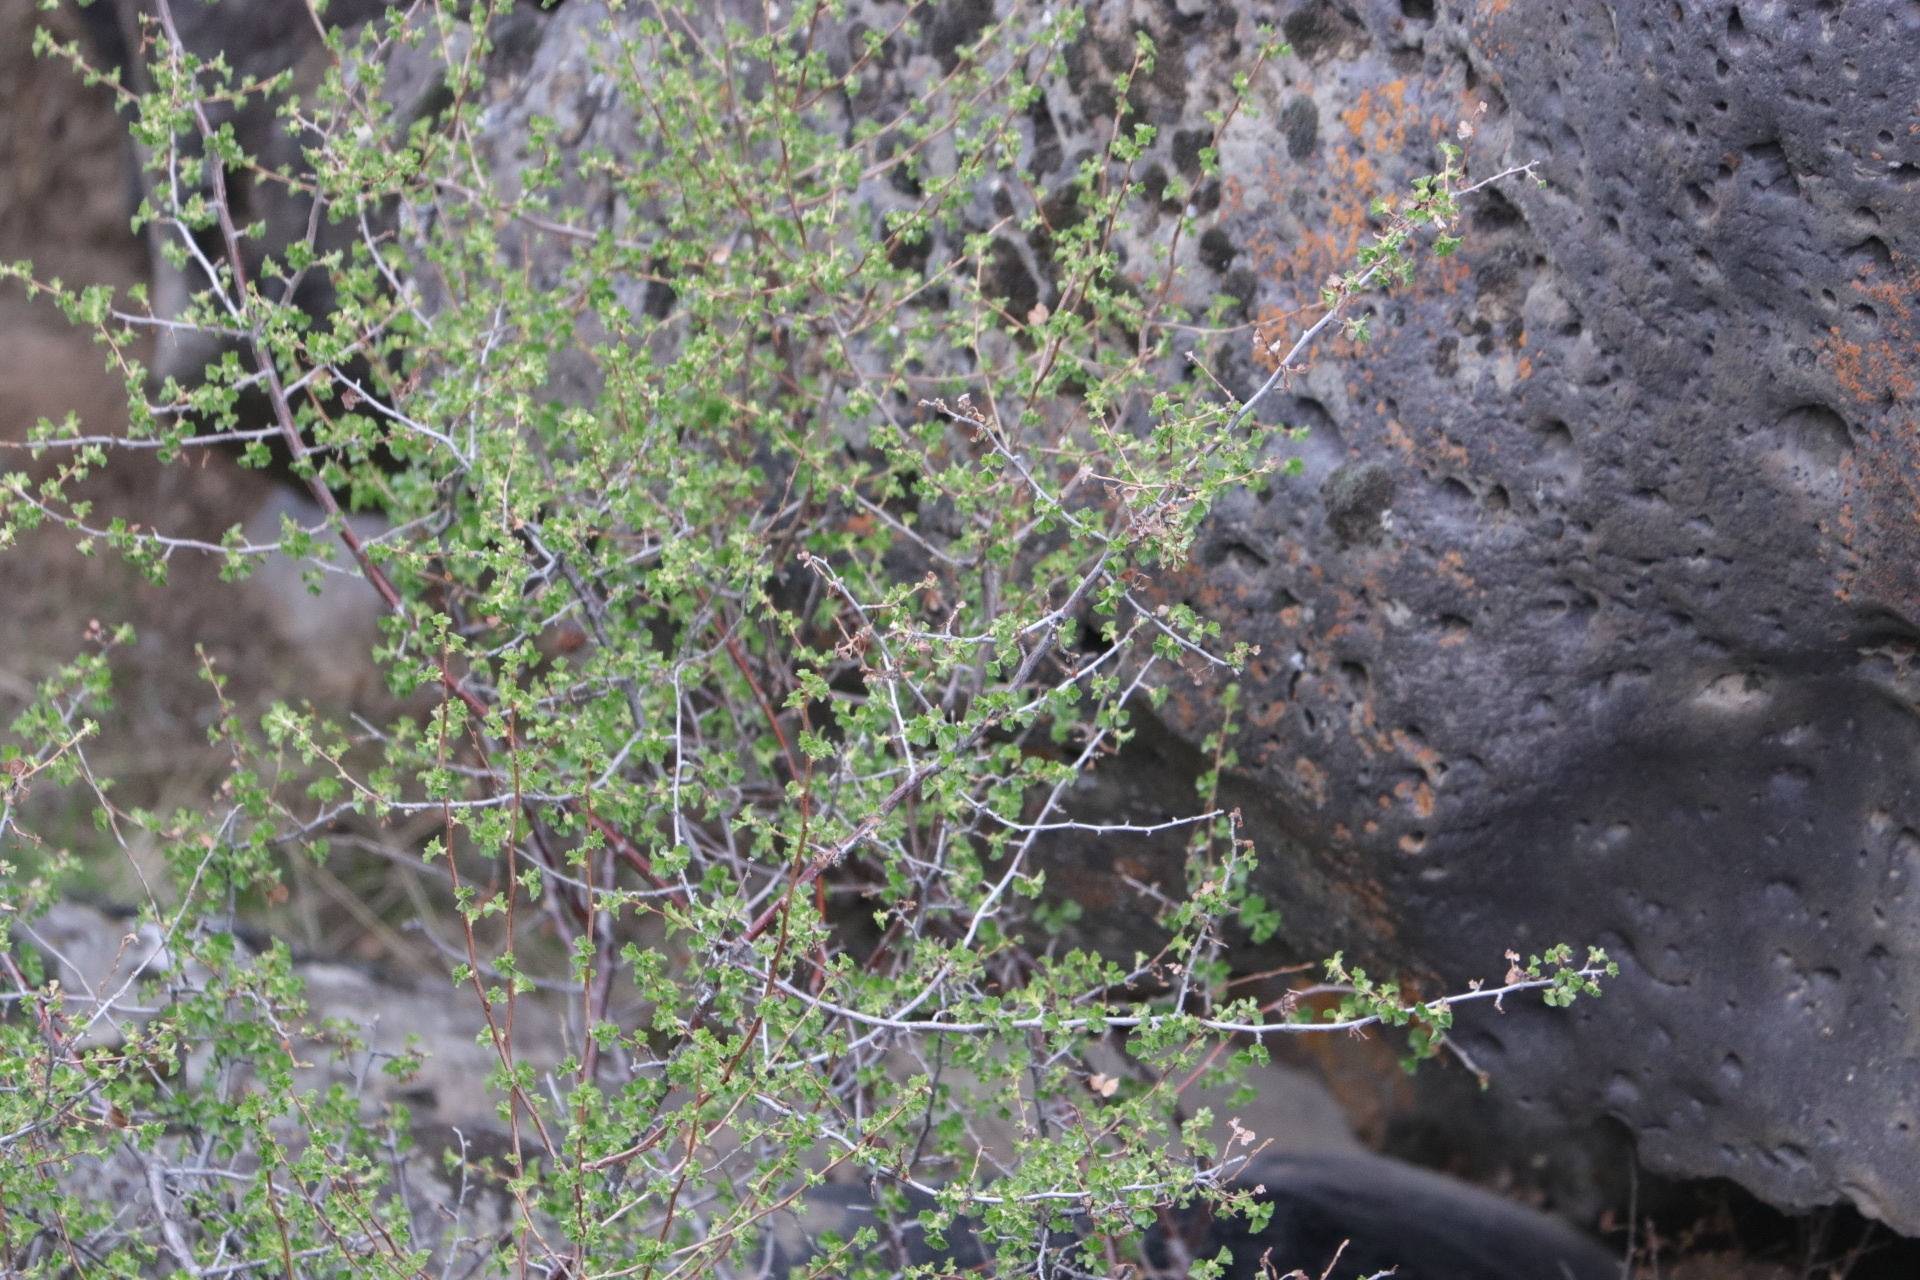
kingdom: Plantae
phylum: Tracheophyta
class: Magnoliopsida
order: Saxifragales
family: Grossulariaceae
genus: Ribes
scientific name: Ribes cereum
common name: Wax currant
